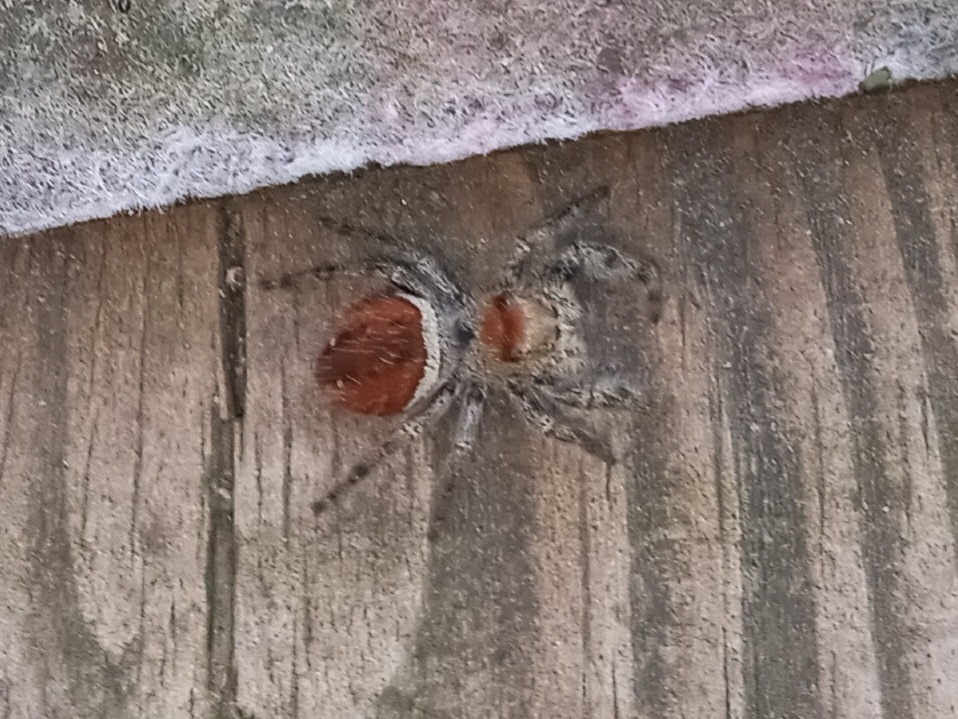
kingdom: Animalia
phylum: Arthropoda
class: Arachnida
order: Araneae
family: Salticidae
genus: Phidippus
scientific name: Phidippus clarus
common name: Brilliant jumping spider
